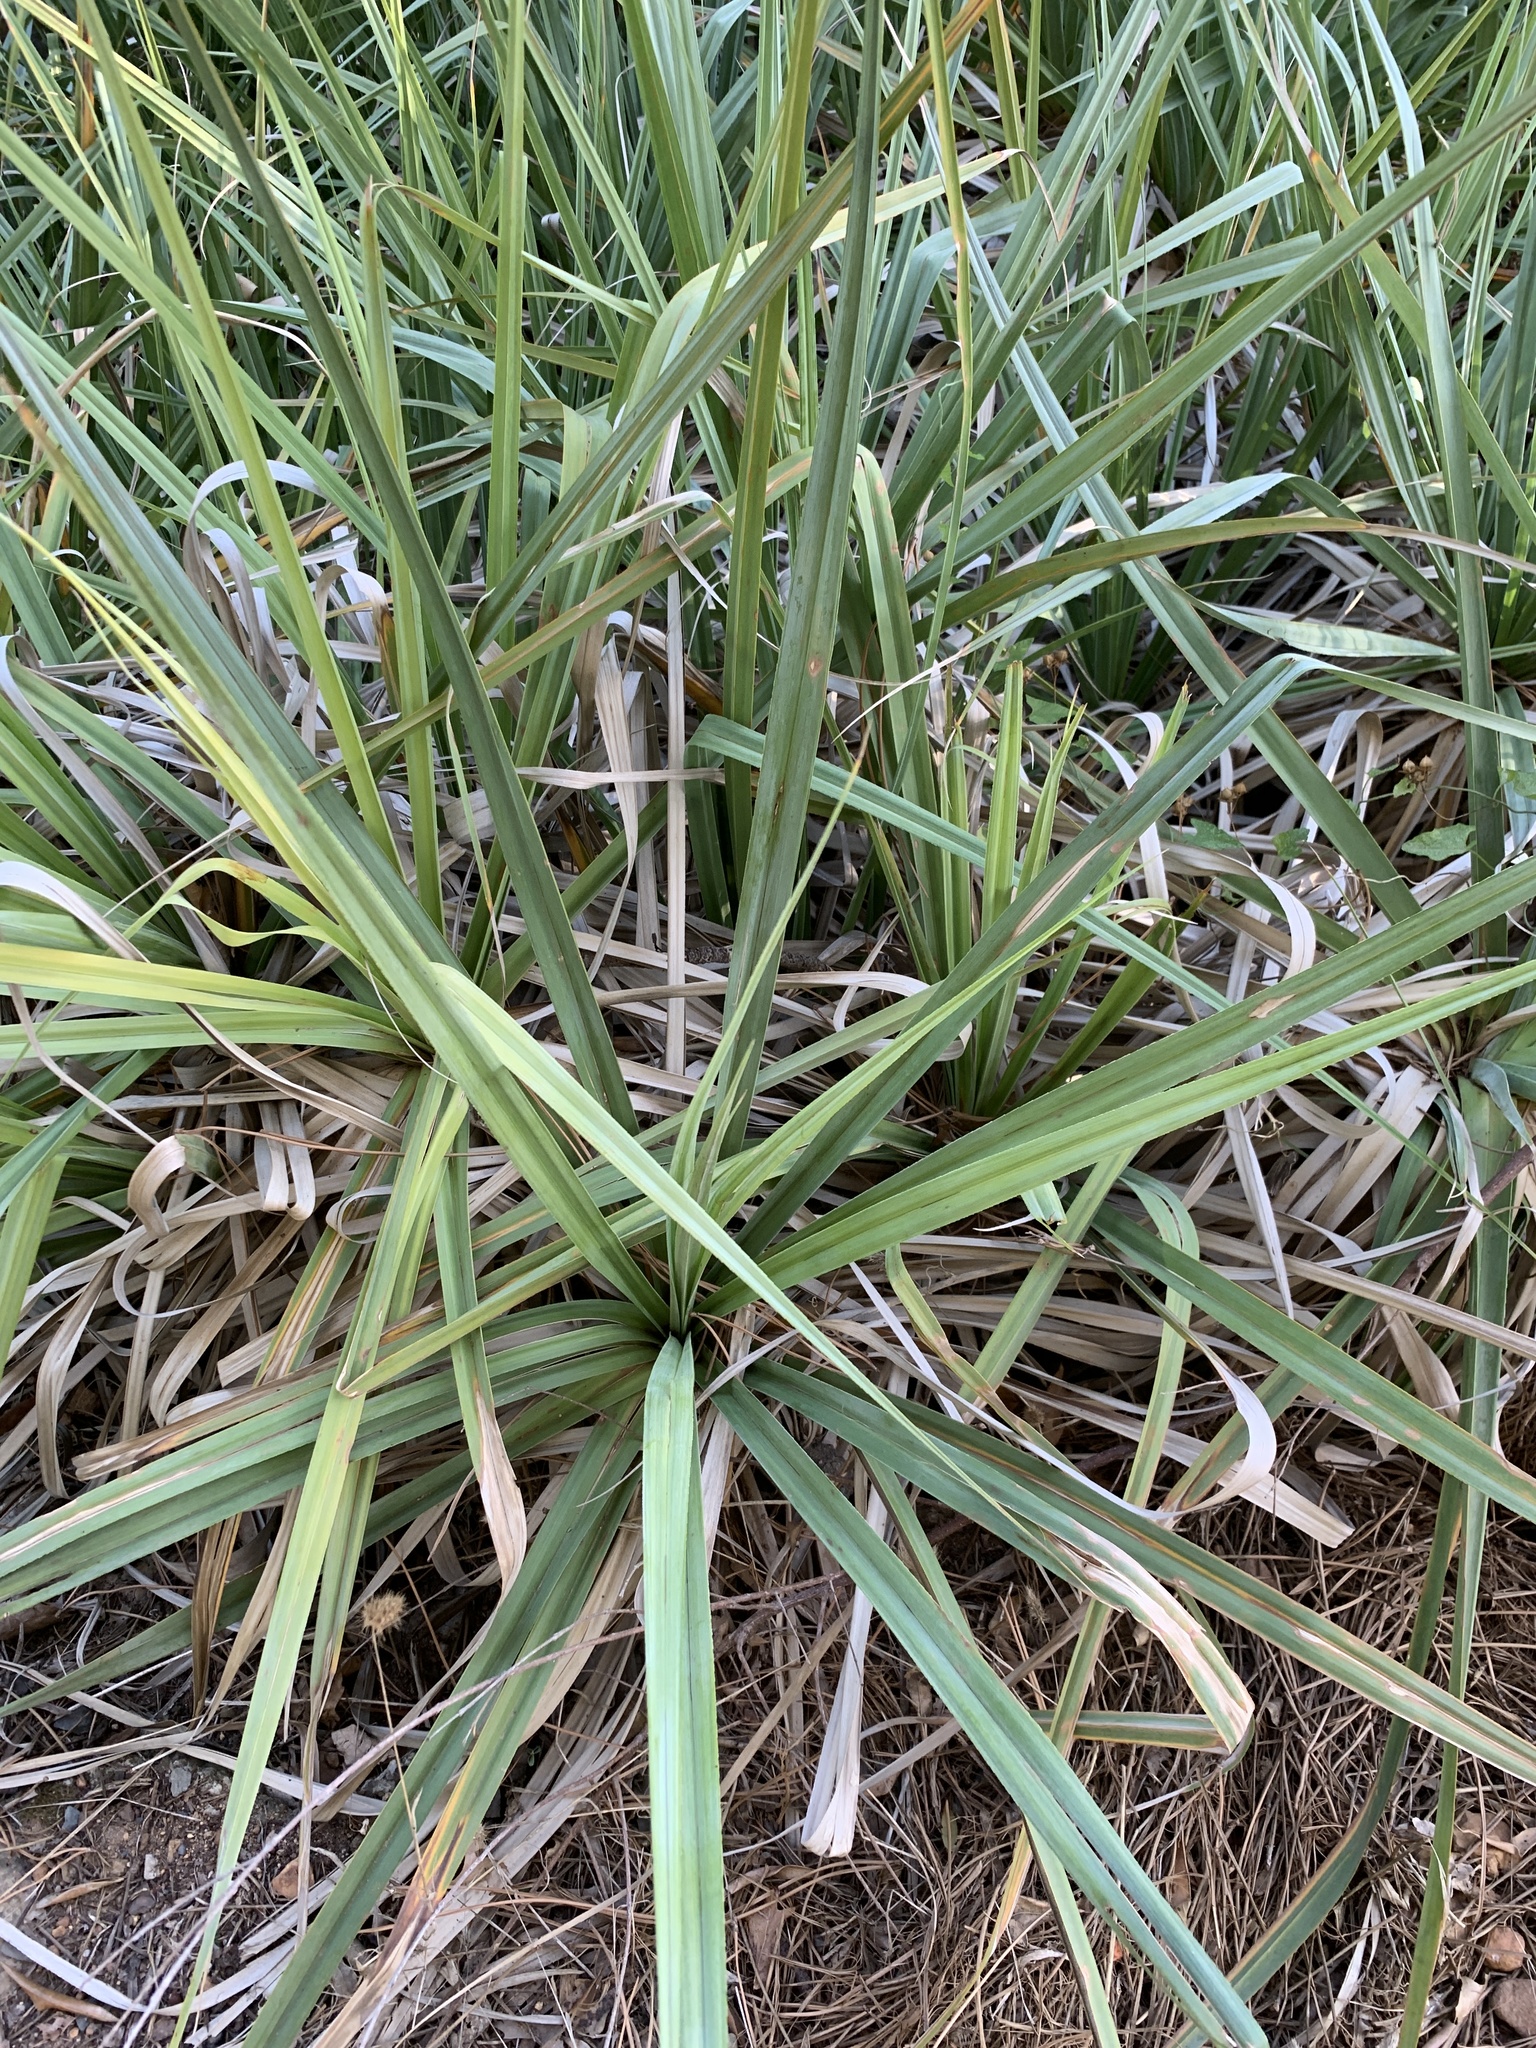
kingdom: Plantae
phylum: Tracheophyta
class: Liliopsida
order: Poales
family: Thurniaceae
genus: Prionium
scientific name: Prionium serratum
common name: Palmiet
